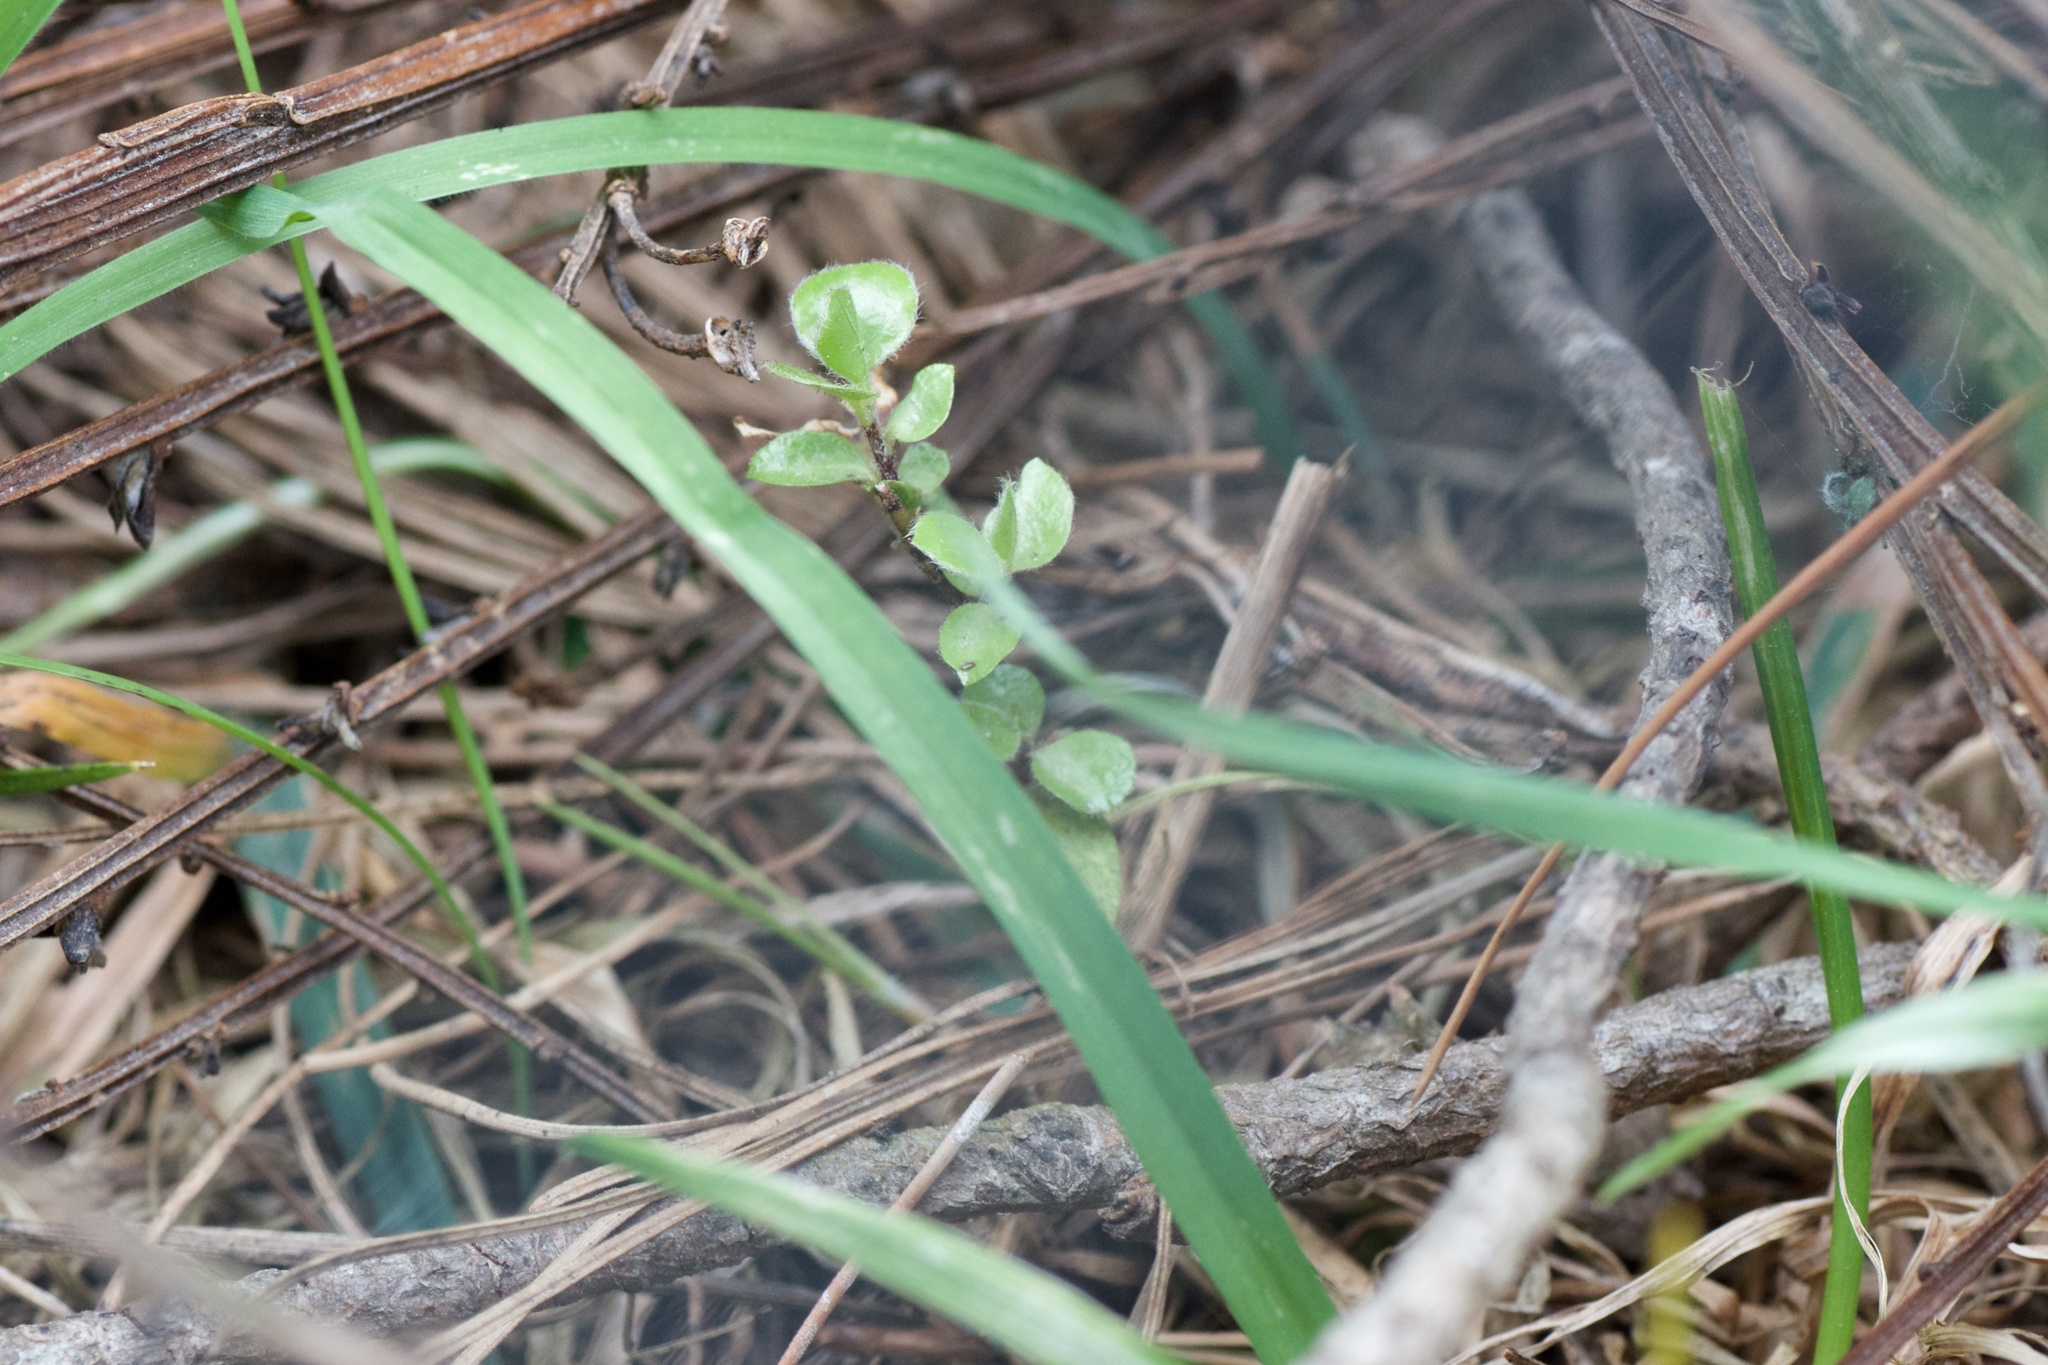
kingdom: Plantae
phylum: Tracheophyta
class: Magnoliopsida
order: Apiales
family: Pittosporaceae
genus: Pittosporum
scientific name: Pittosporum tenuifolium
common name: Kohuhu
